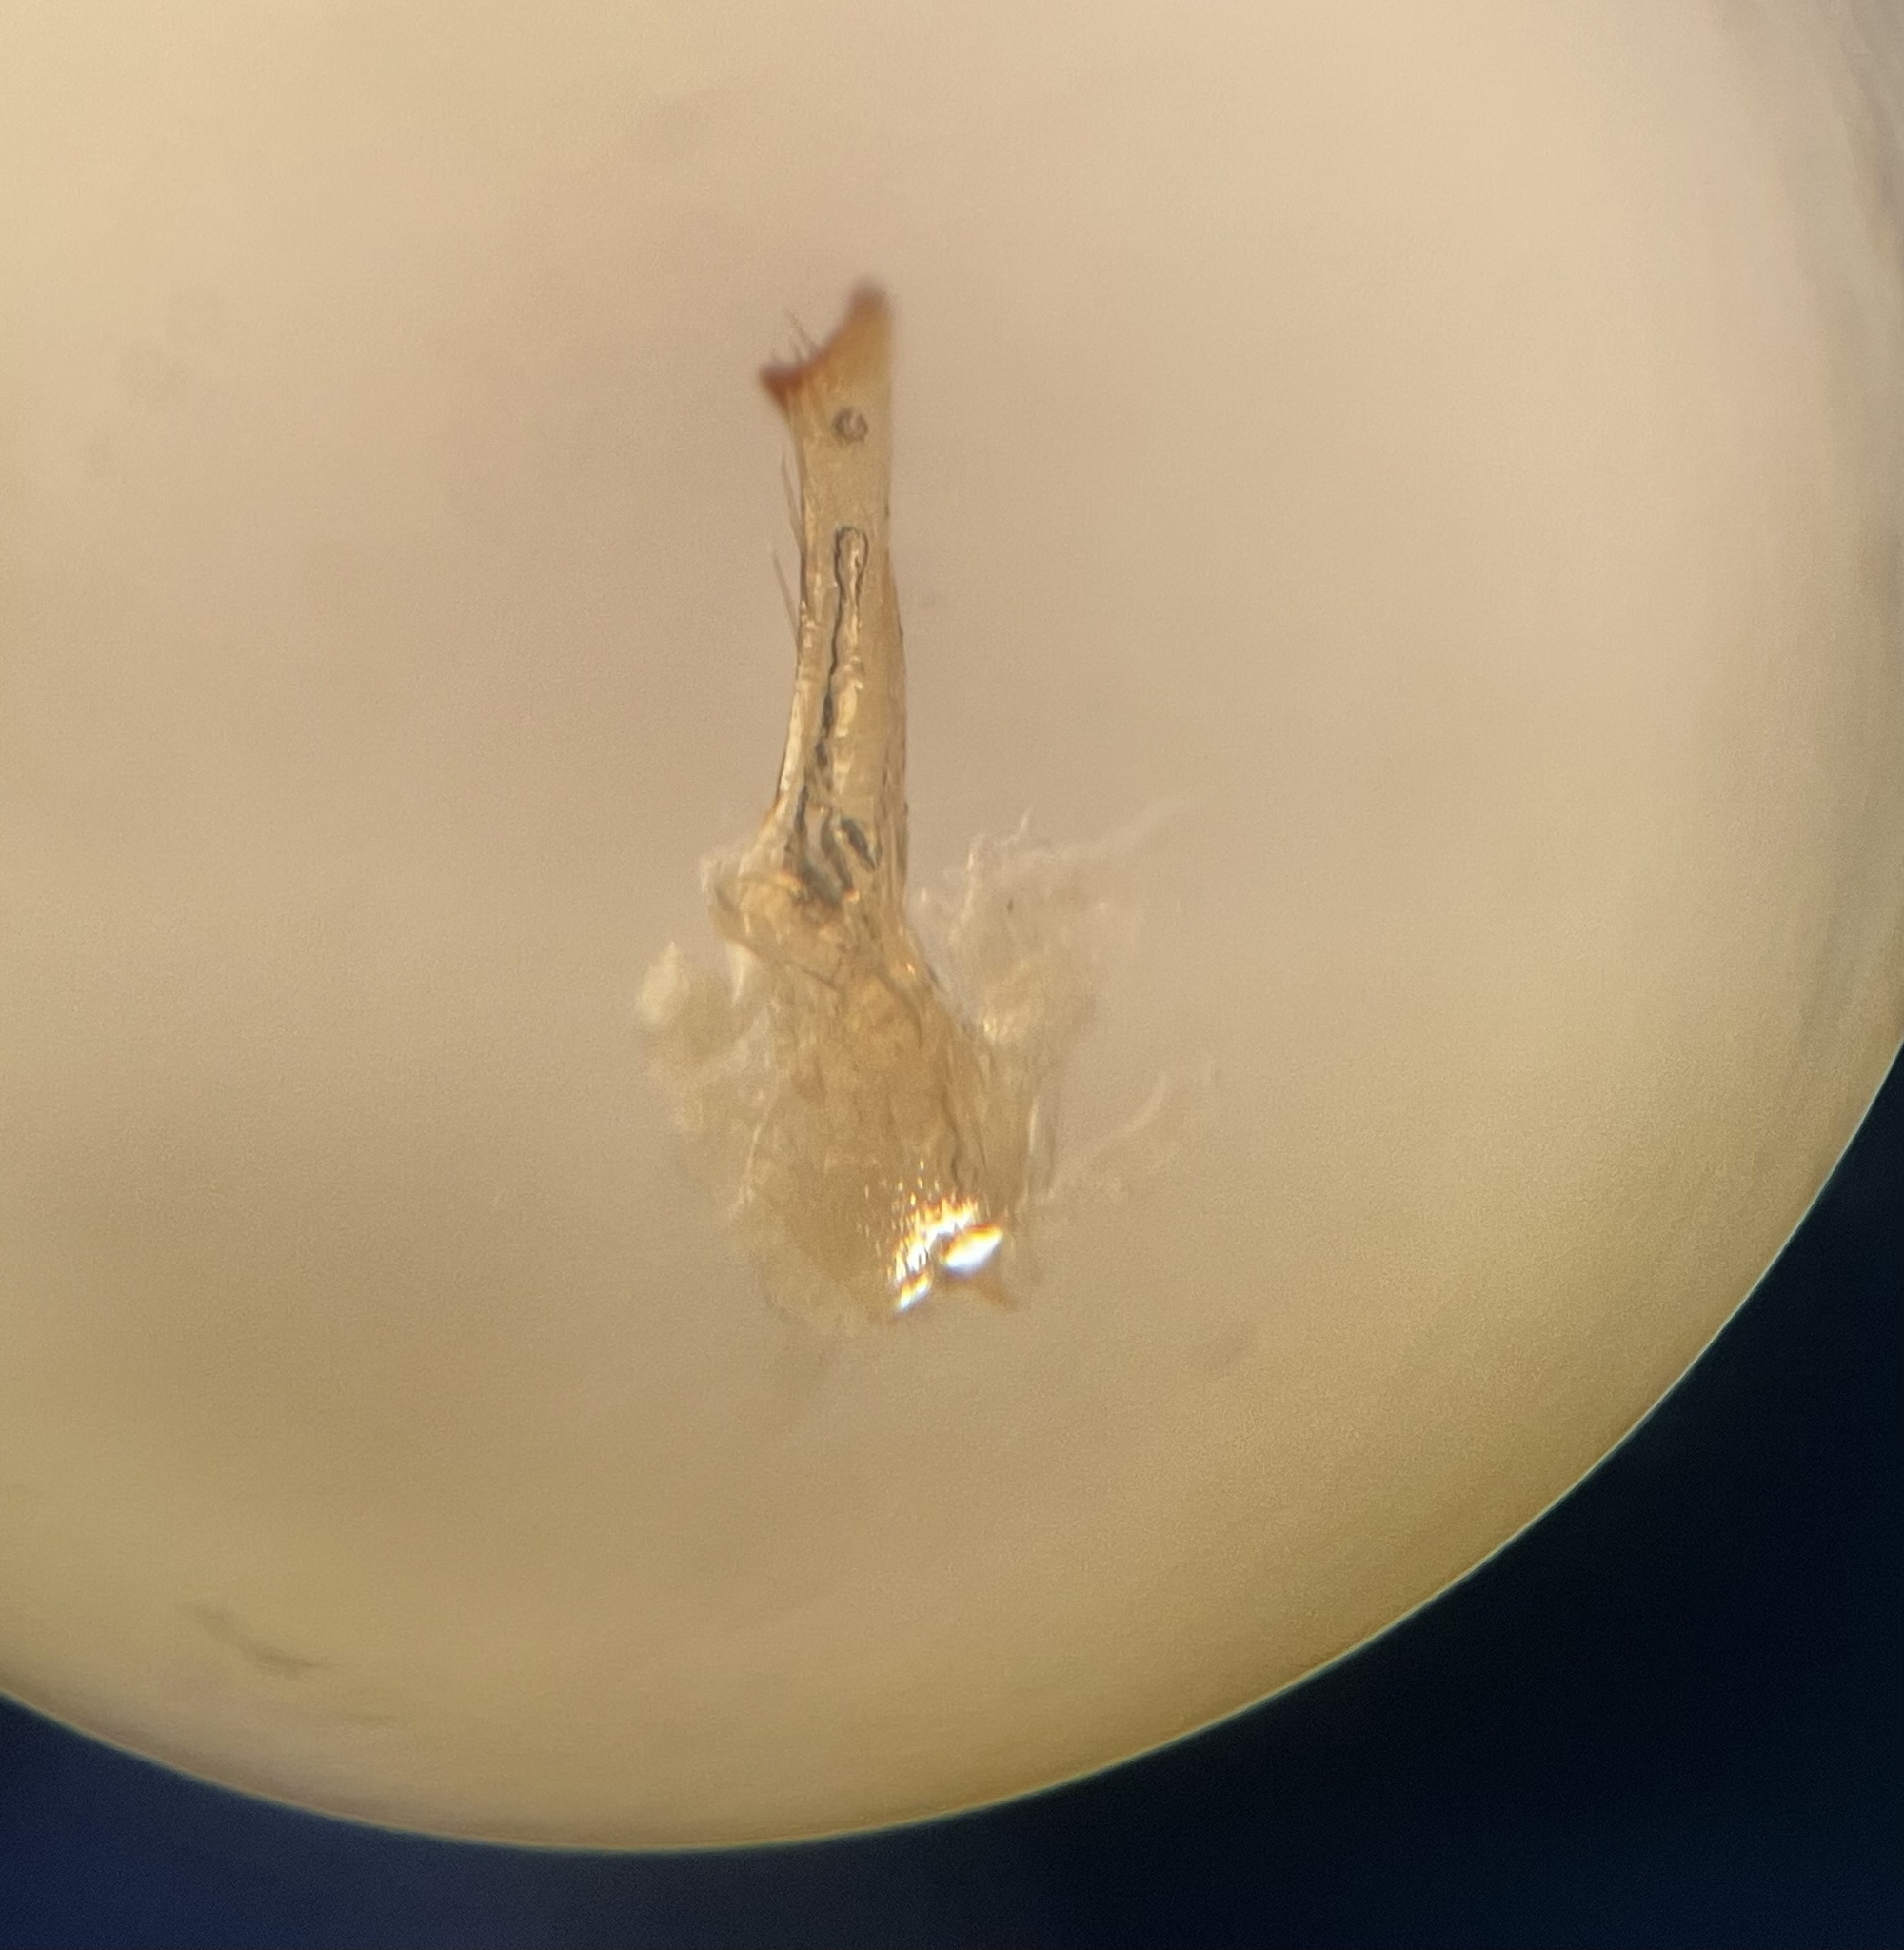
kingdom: Animalia
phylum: Arthropoda
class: Insecta
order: Hemiptera
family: Cicadellidae
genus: Forcipata
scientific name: Forcipata citrinella
